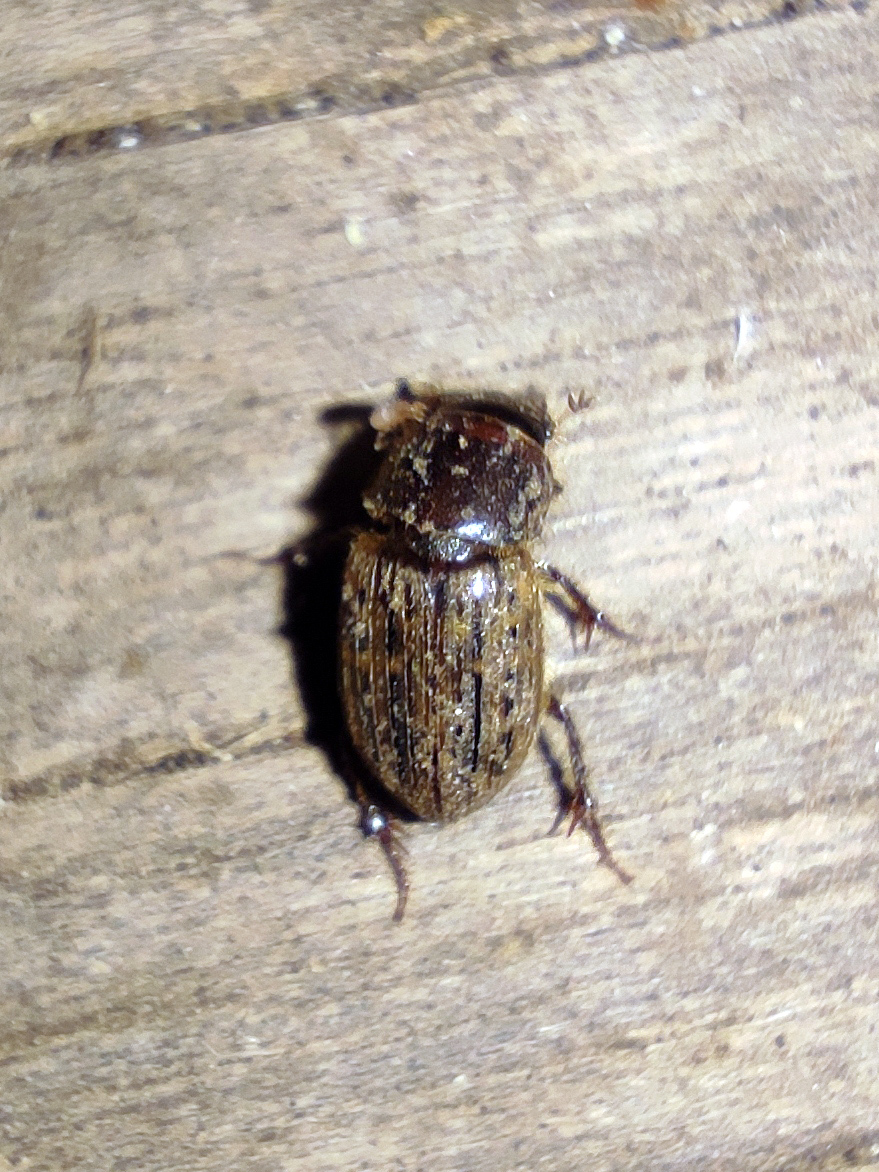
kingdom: Animalia
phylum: Arthropoda
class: Insecta
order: Coleoptera
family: Scarabaeidae
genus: Euheptaulacus
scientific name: Euheptaulacus sus
